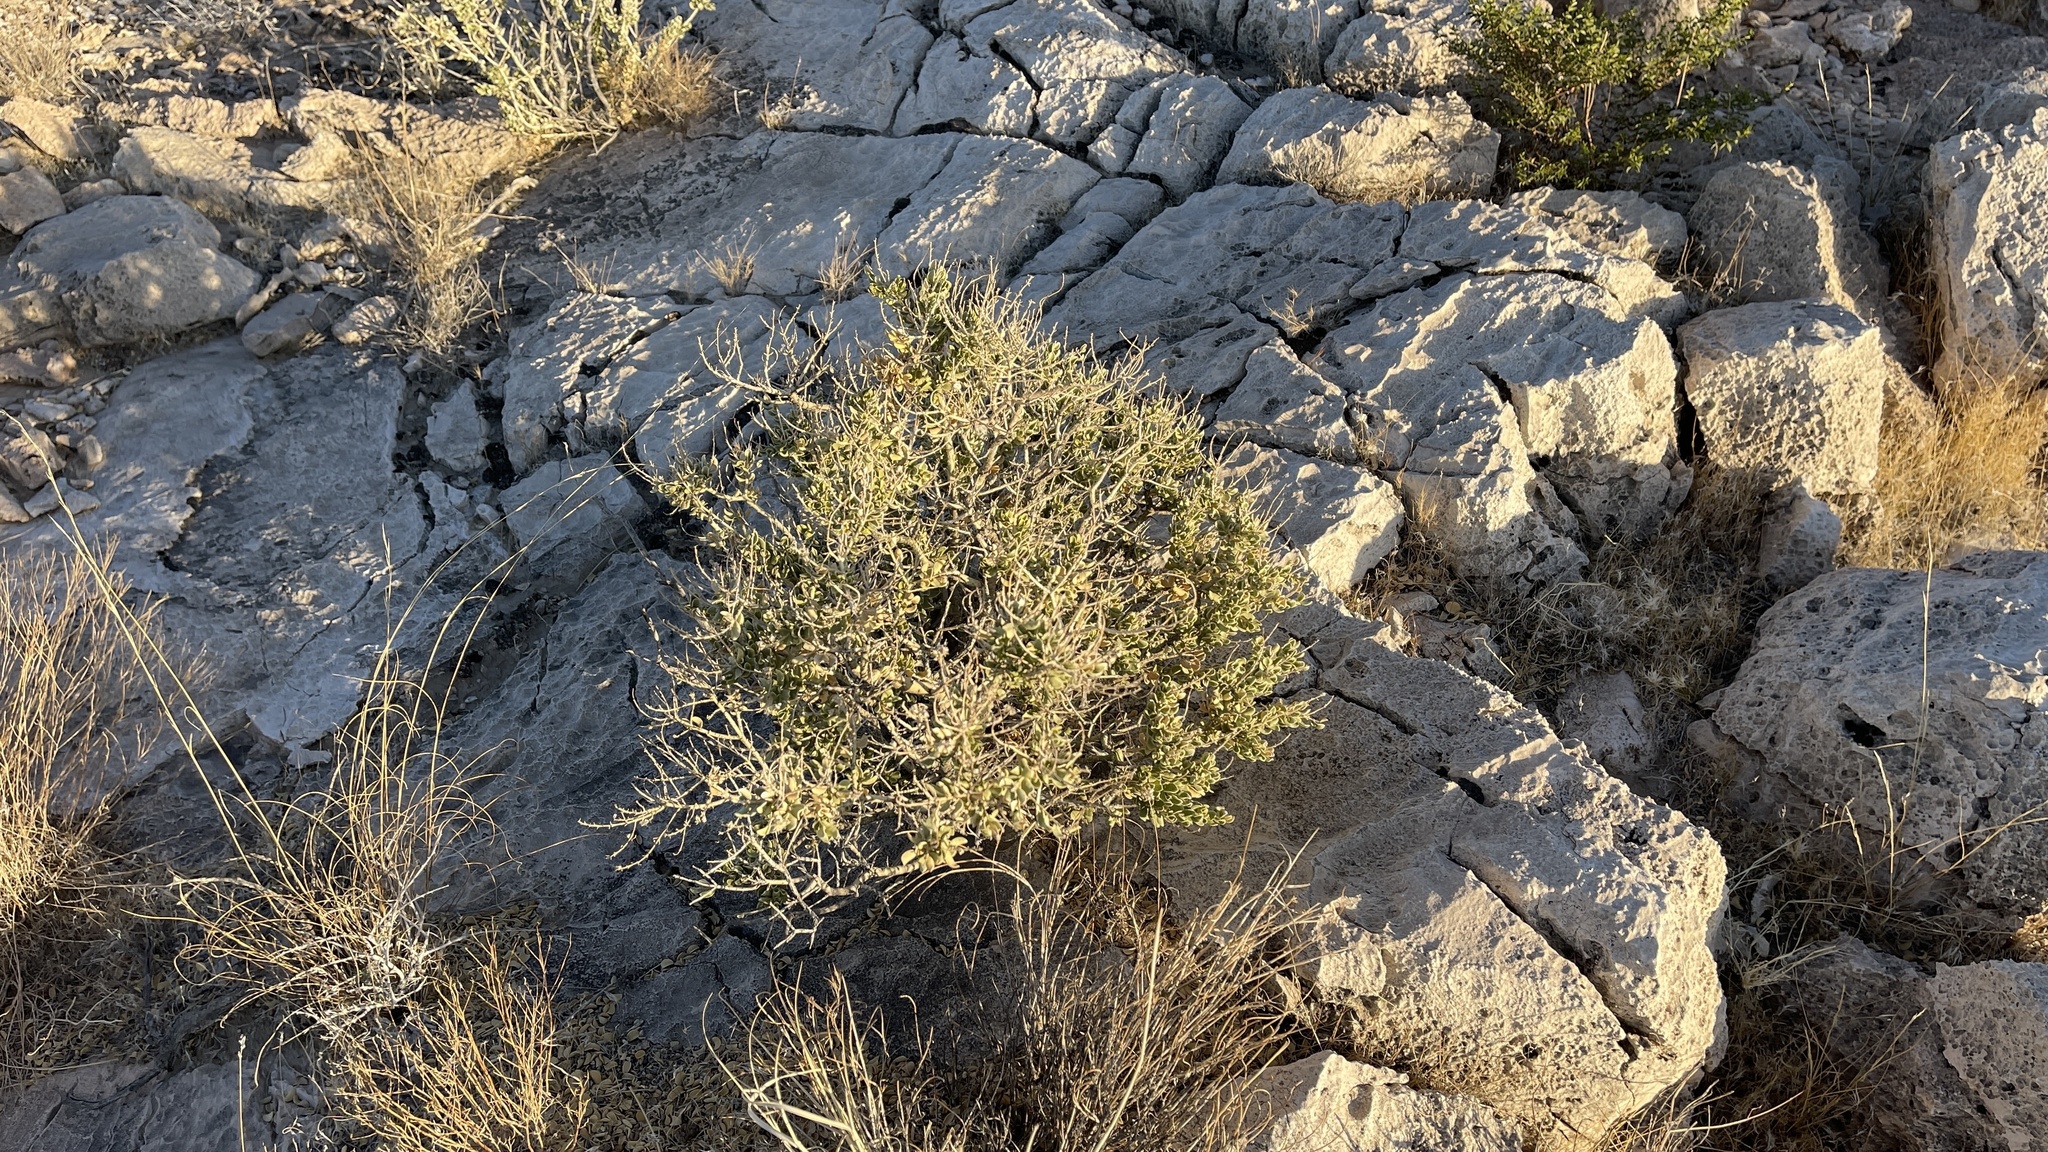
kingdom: Plantae
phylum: Tracheophyta
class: Magnoliopsida
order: Celastrales
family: Celastraceae
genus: Mortonia
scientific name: Mortonia utahensis
